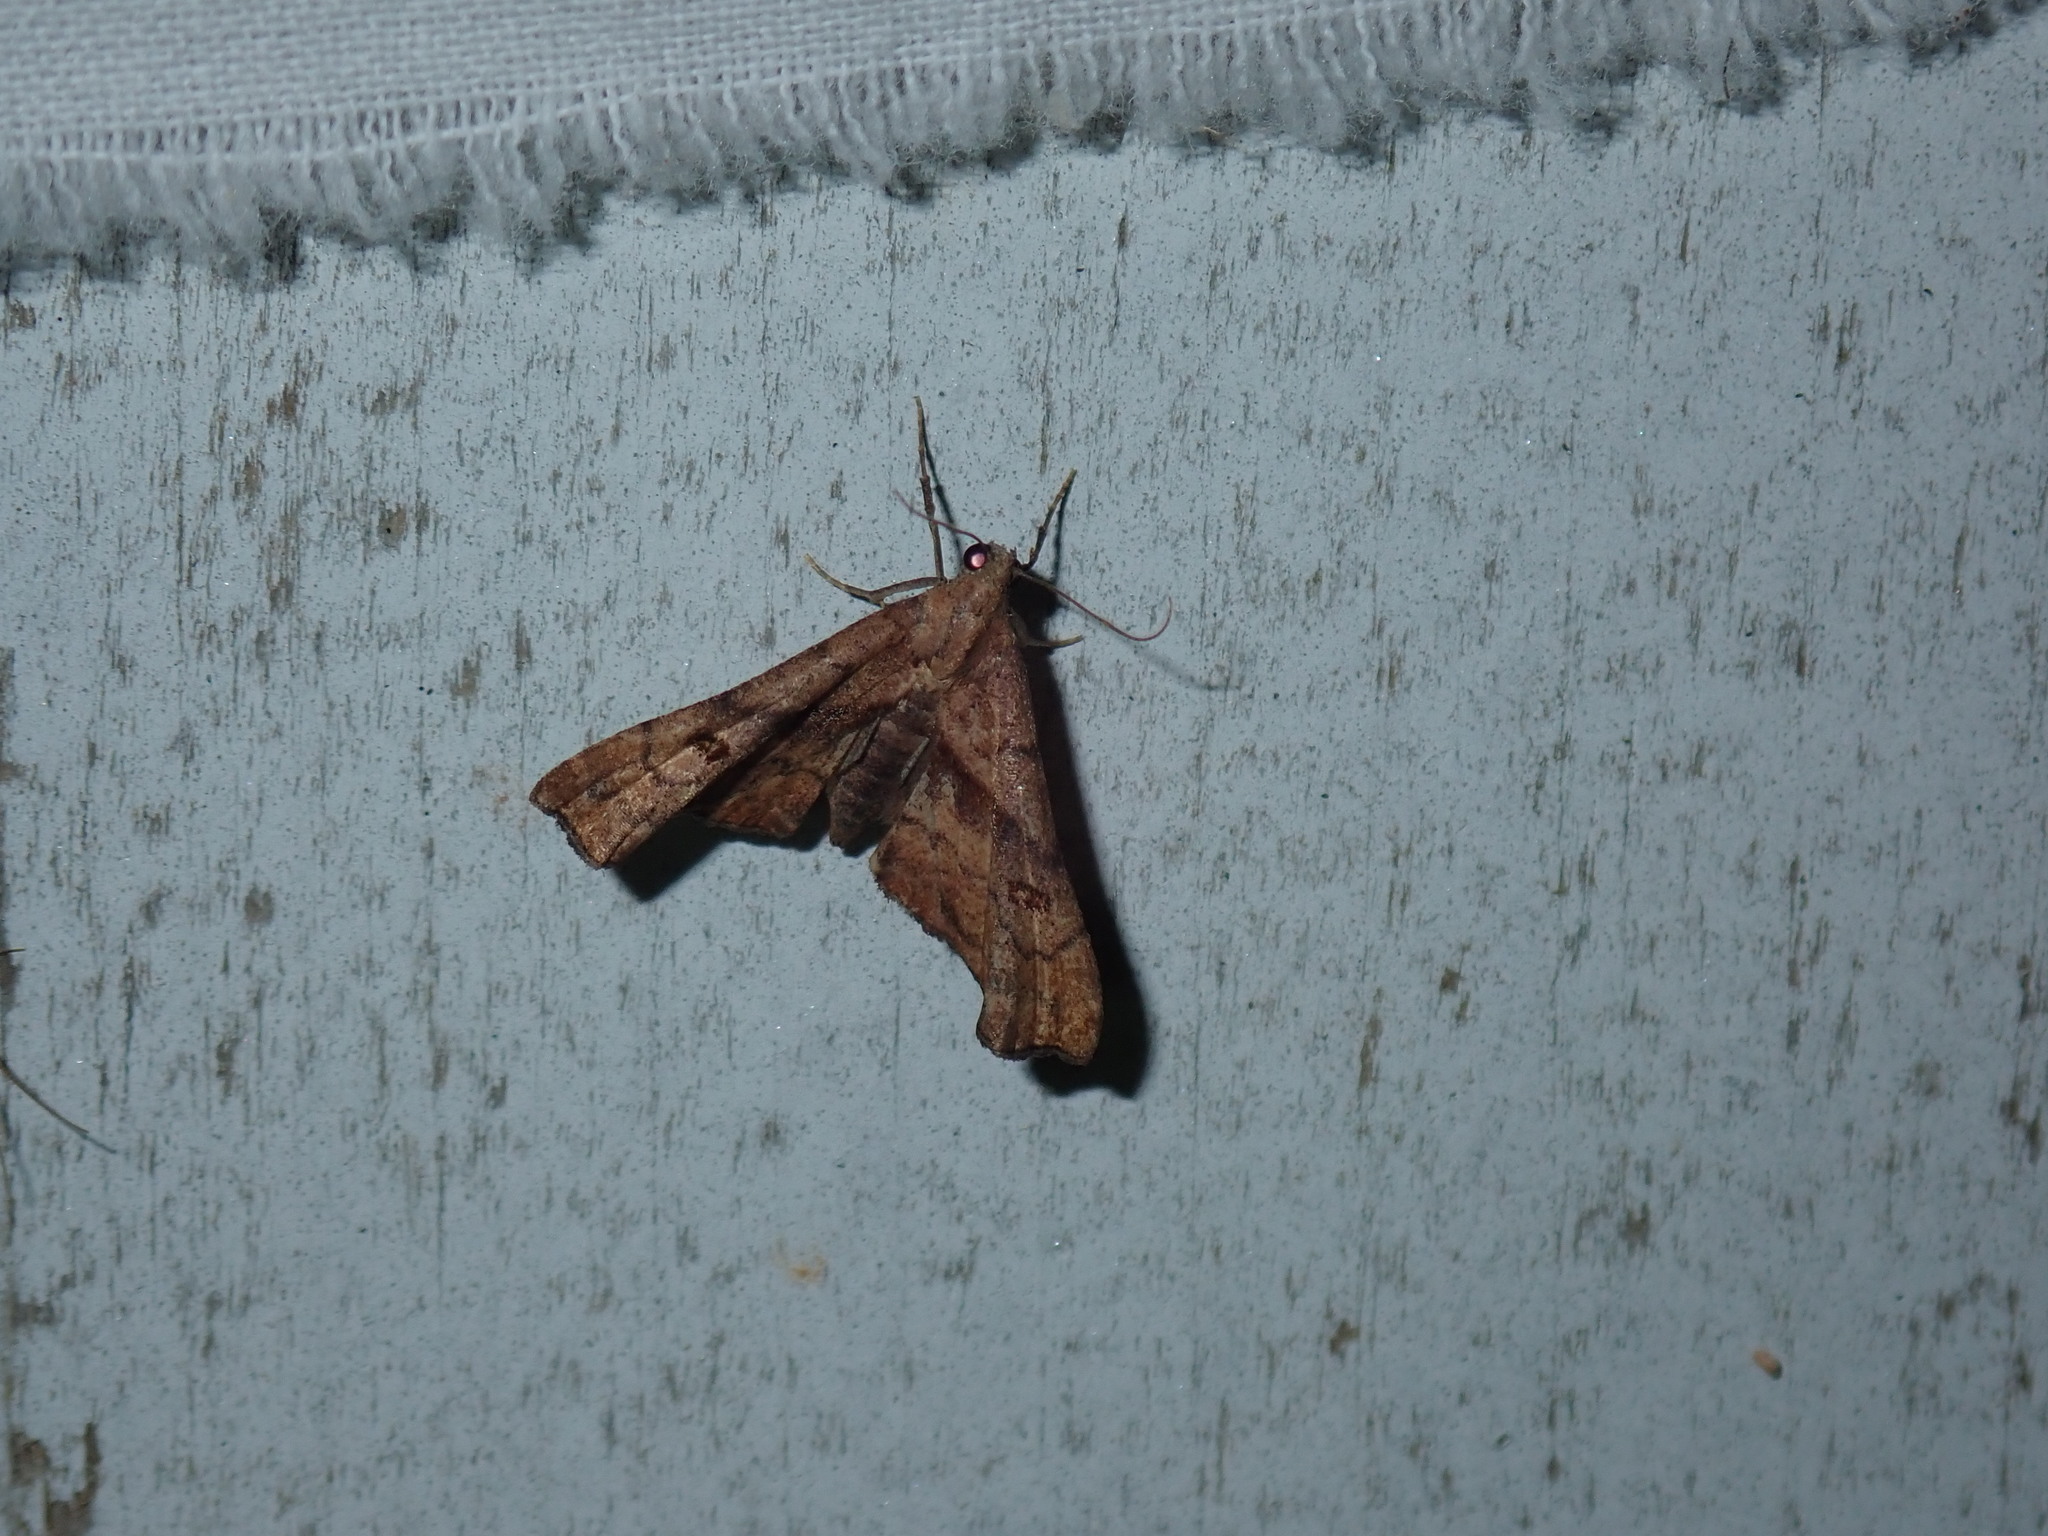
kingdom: Animalia
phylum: Arthropoda
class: Insecta
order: Lepidoptera
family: Erebidae
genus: Palthis
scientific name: Palthis angulalis
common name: Dark-spotted palthis moth
